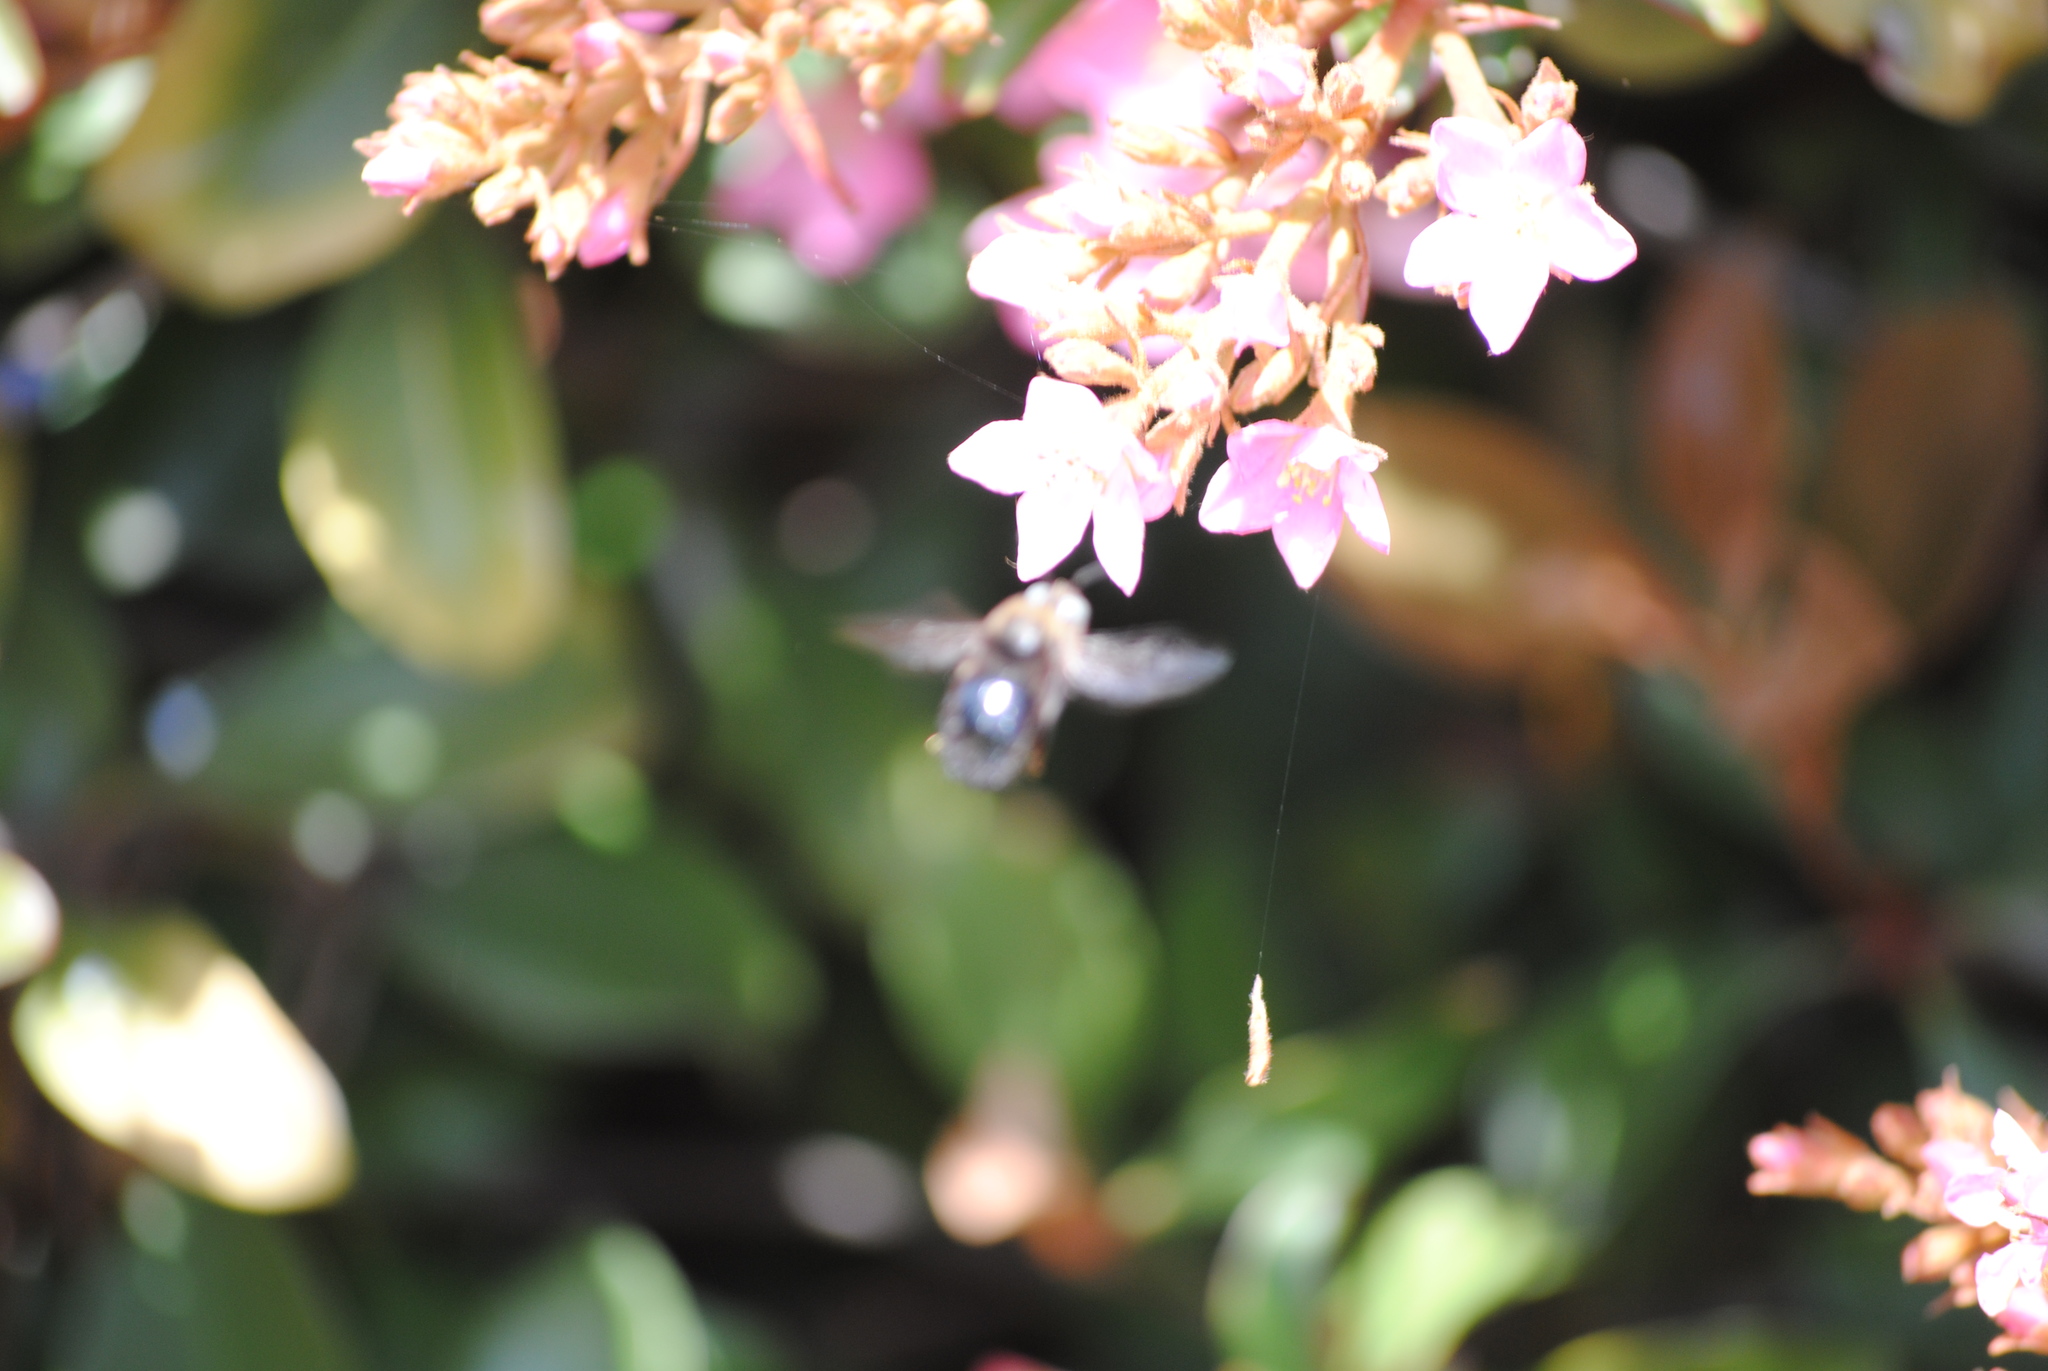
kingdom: Animalia
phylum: Arthropoda
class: Insecta
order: Hymenoptera
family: Apidae
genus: Xylocopa
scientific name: Xylocopa tabaniformis
